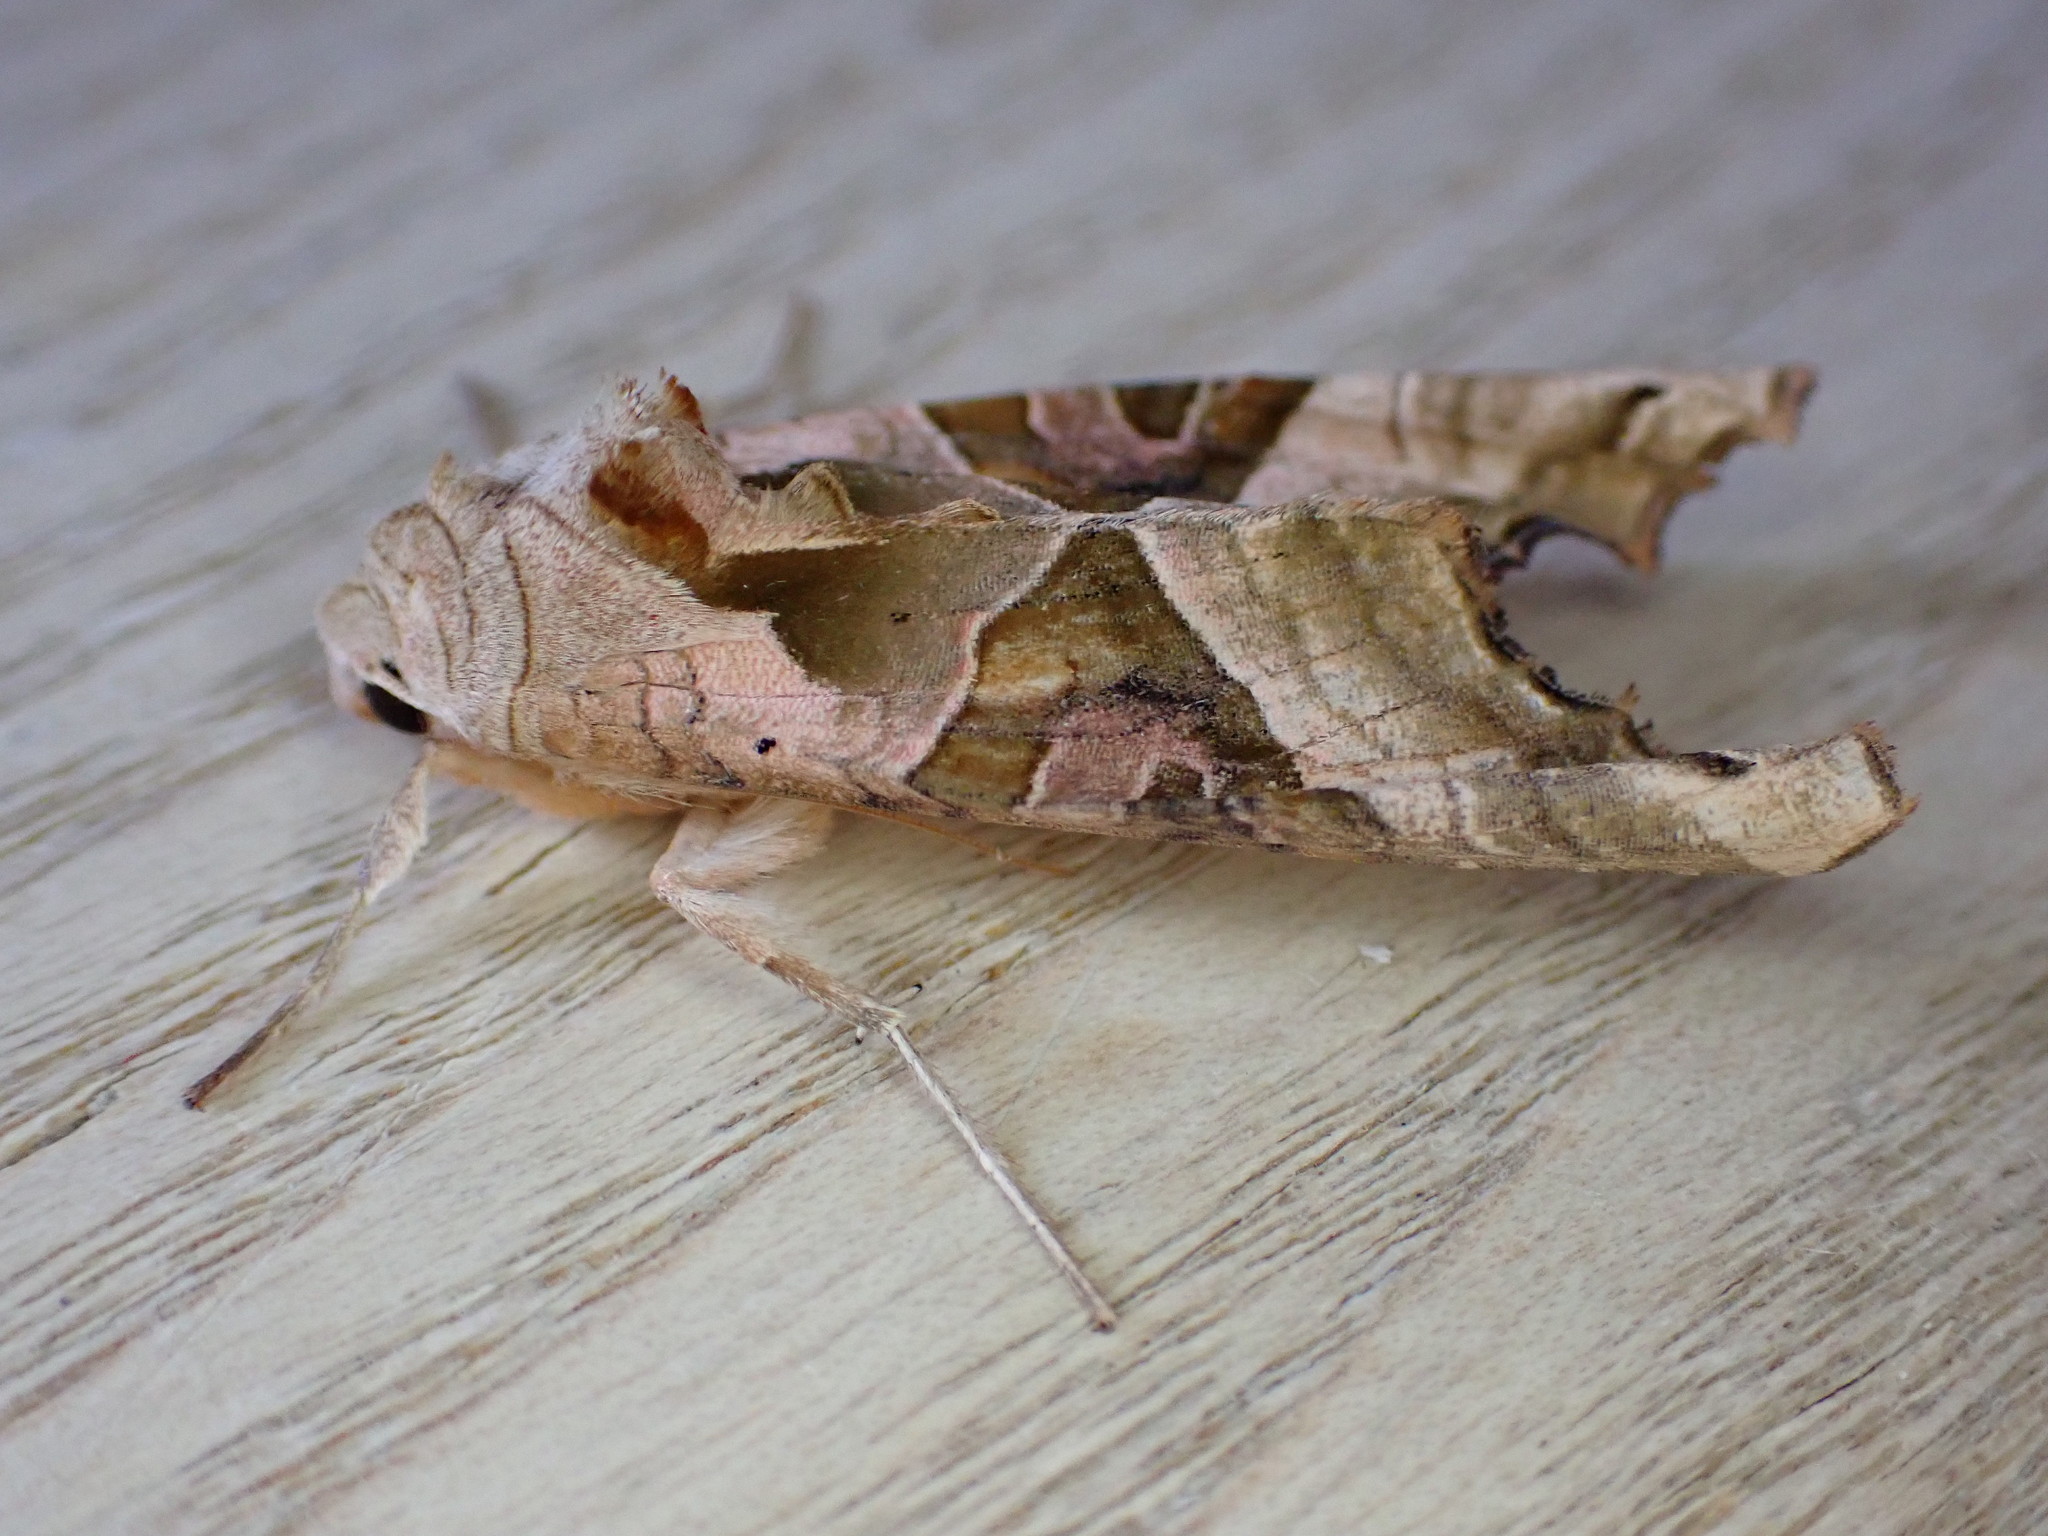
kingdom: Animalia
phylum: Arthropoda
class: Insecta
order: Lepidoptera
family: Noctuidae
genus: Phlogophora
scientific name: Phlogophora meticulosa
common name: Angle shades
